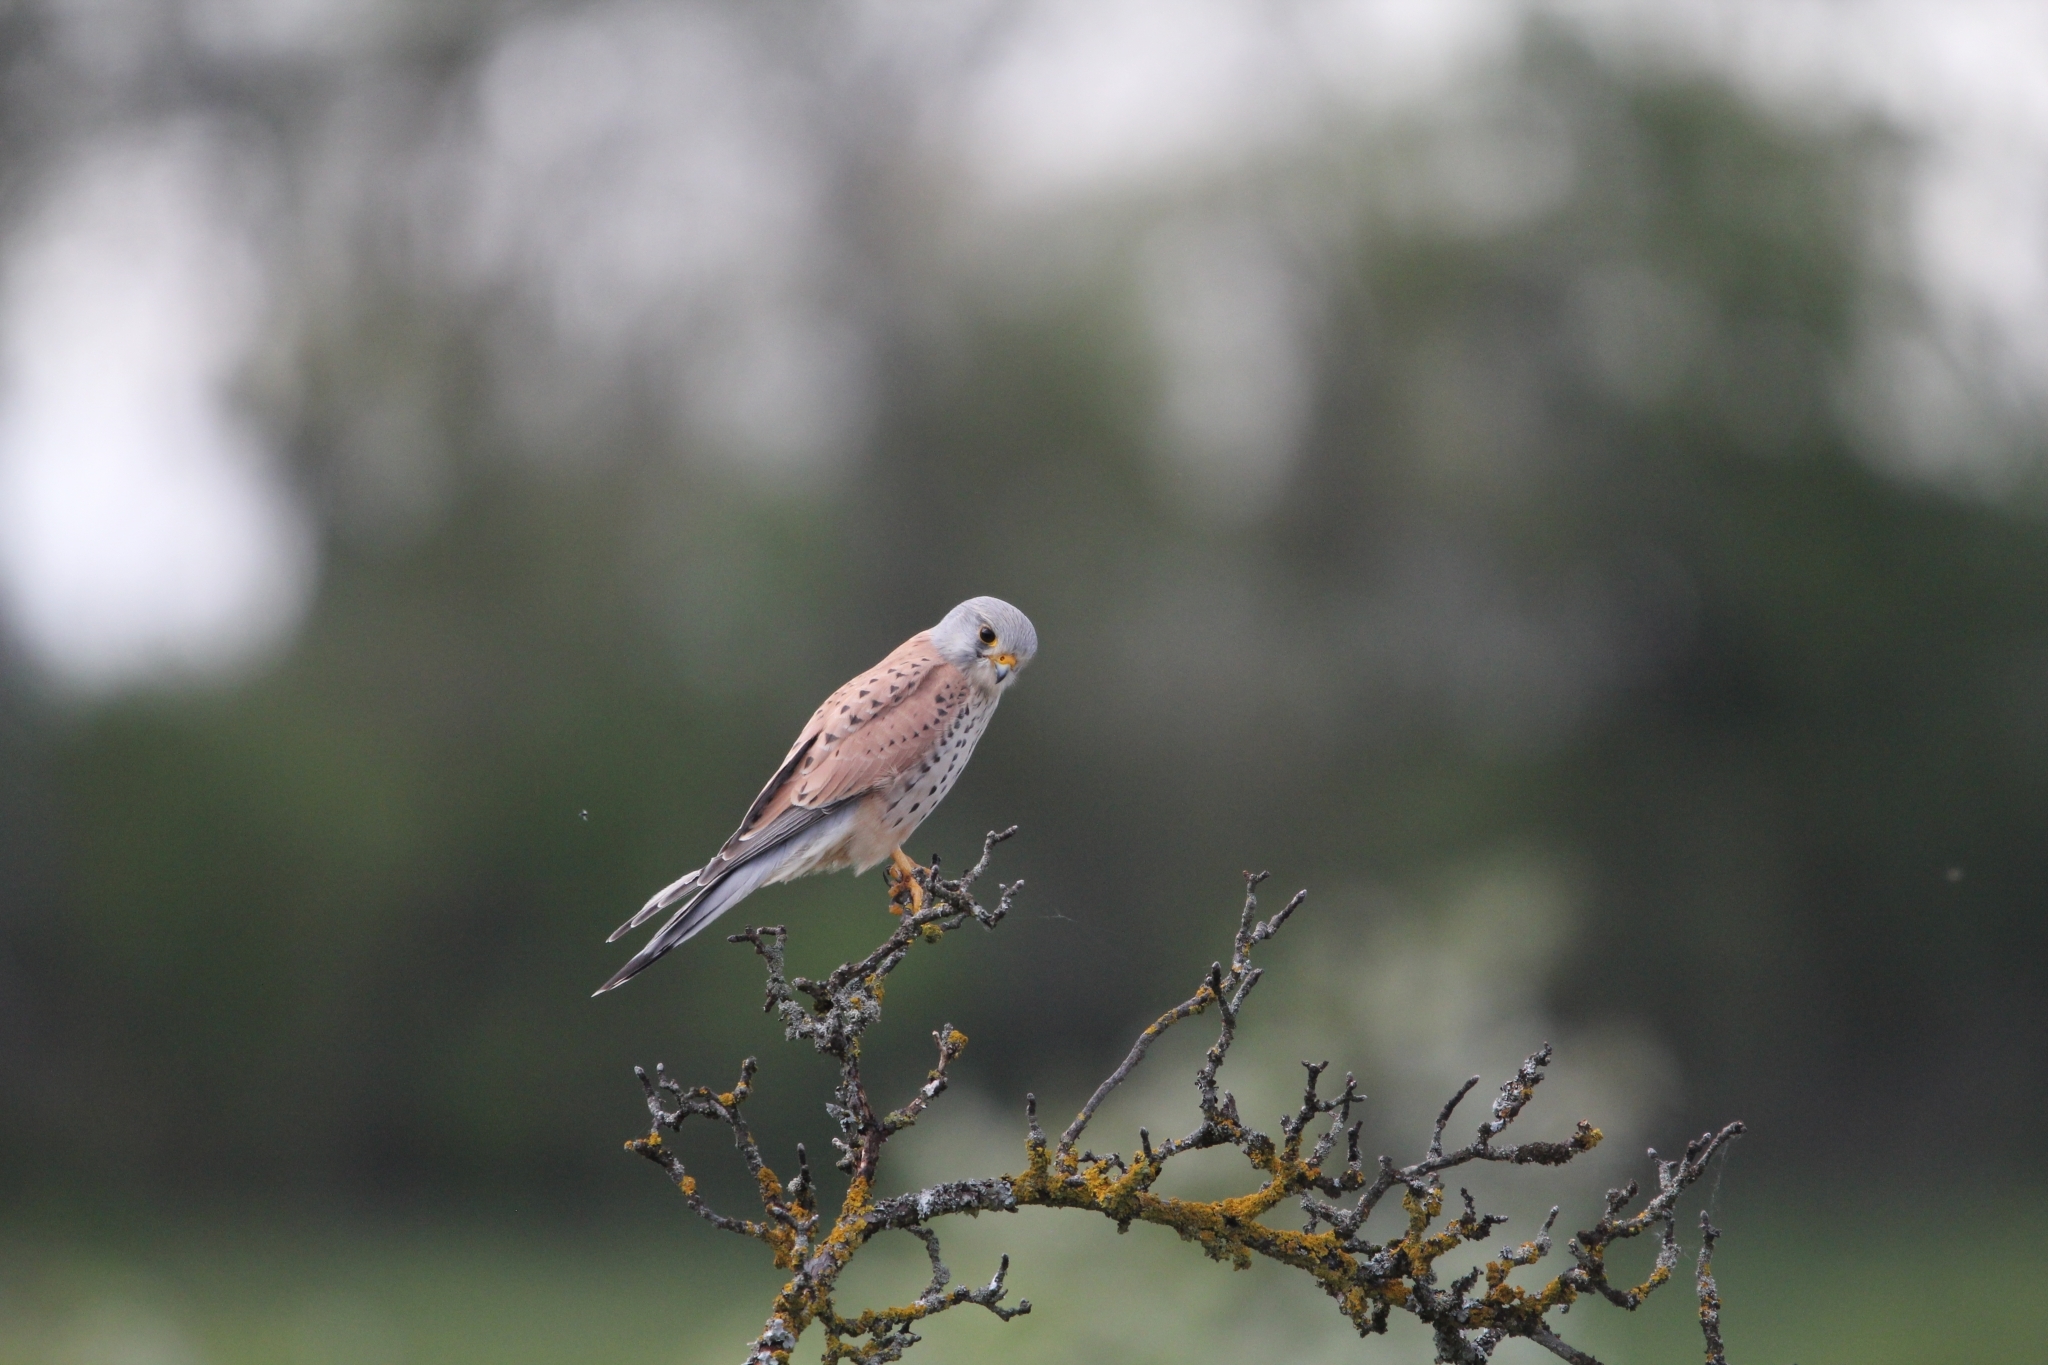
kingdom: Animalia
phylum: Chordata
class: Aves
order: Falconiformes
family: Falconidae
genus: Falco
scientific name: Falco tinnunculus
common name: Common kestrel
